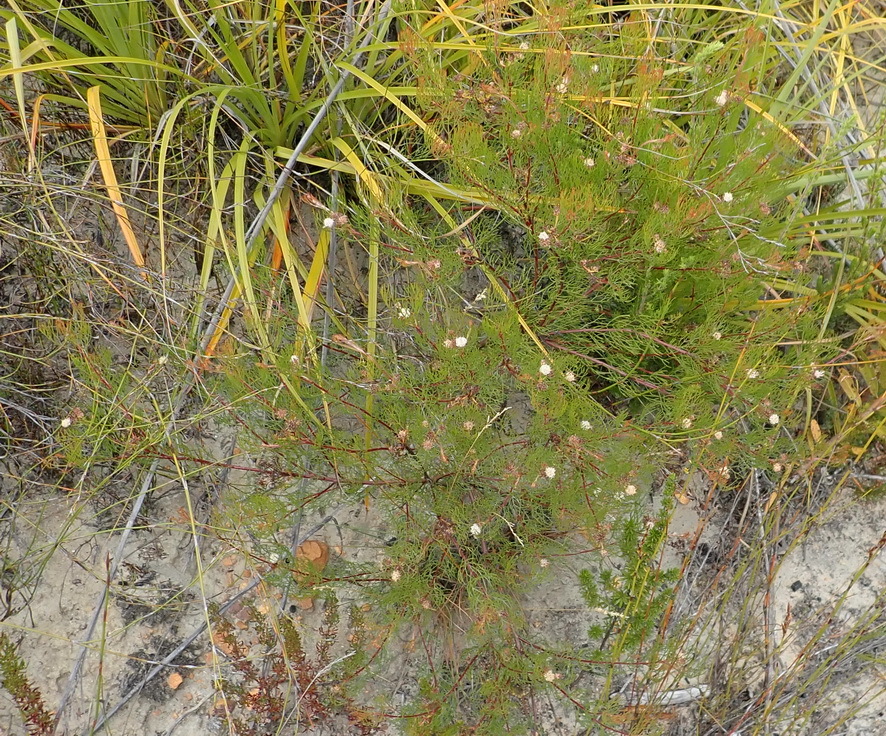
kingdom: Plantae
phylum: Tracheophyta
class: Magnoliopsida
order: Proteales
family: Proteaceae
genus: Serruria
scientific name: Serruria fasciflora
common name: Common pin spiderhead
